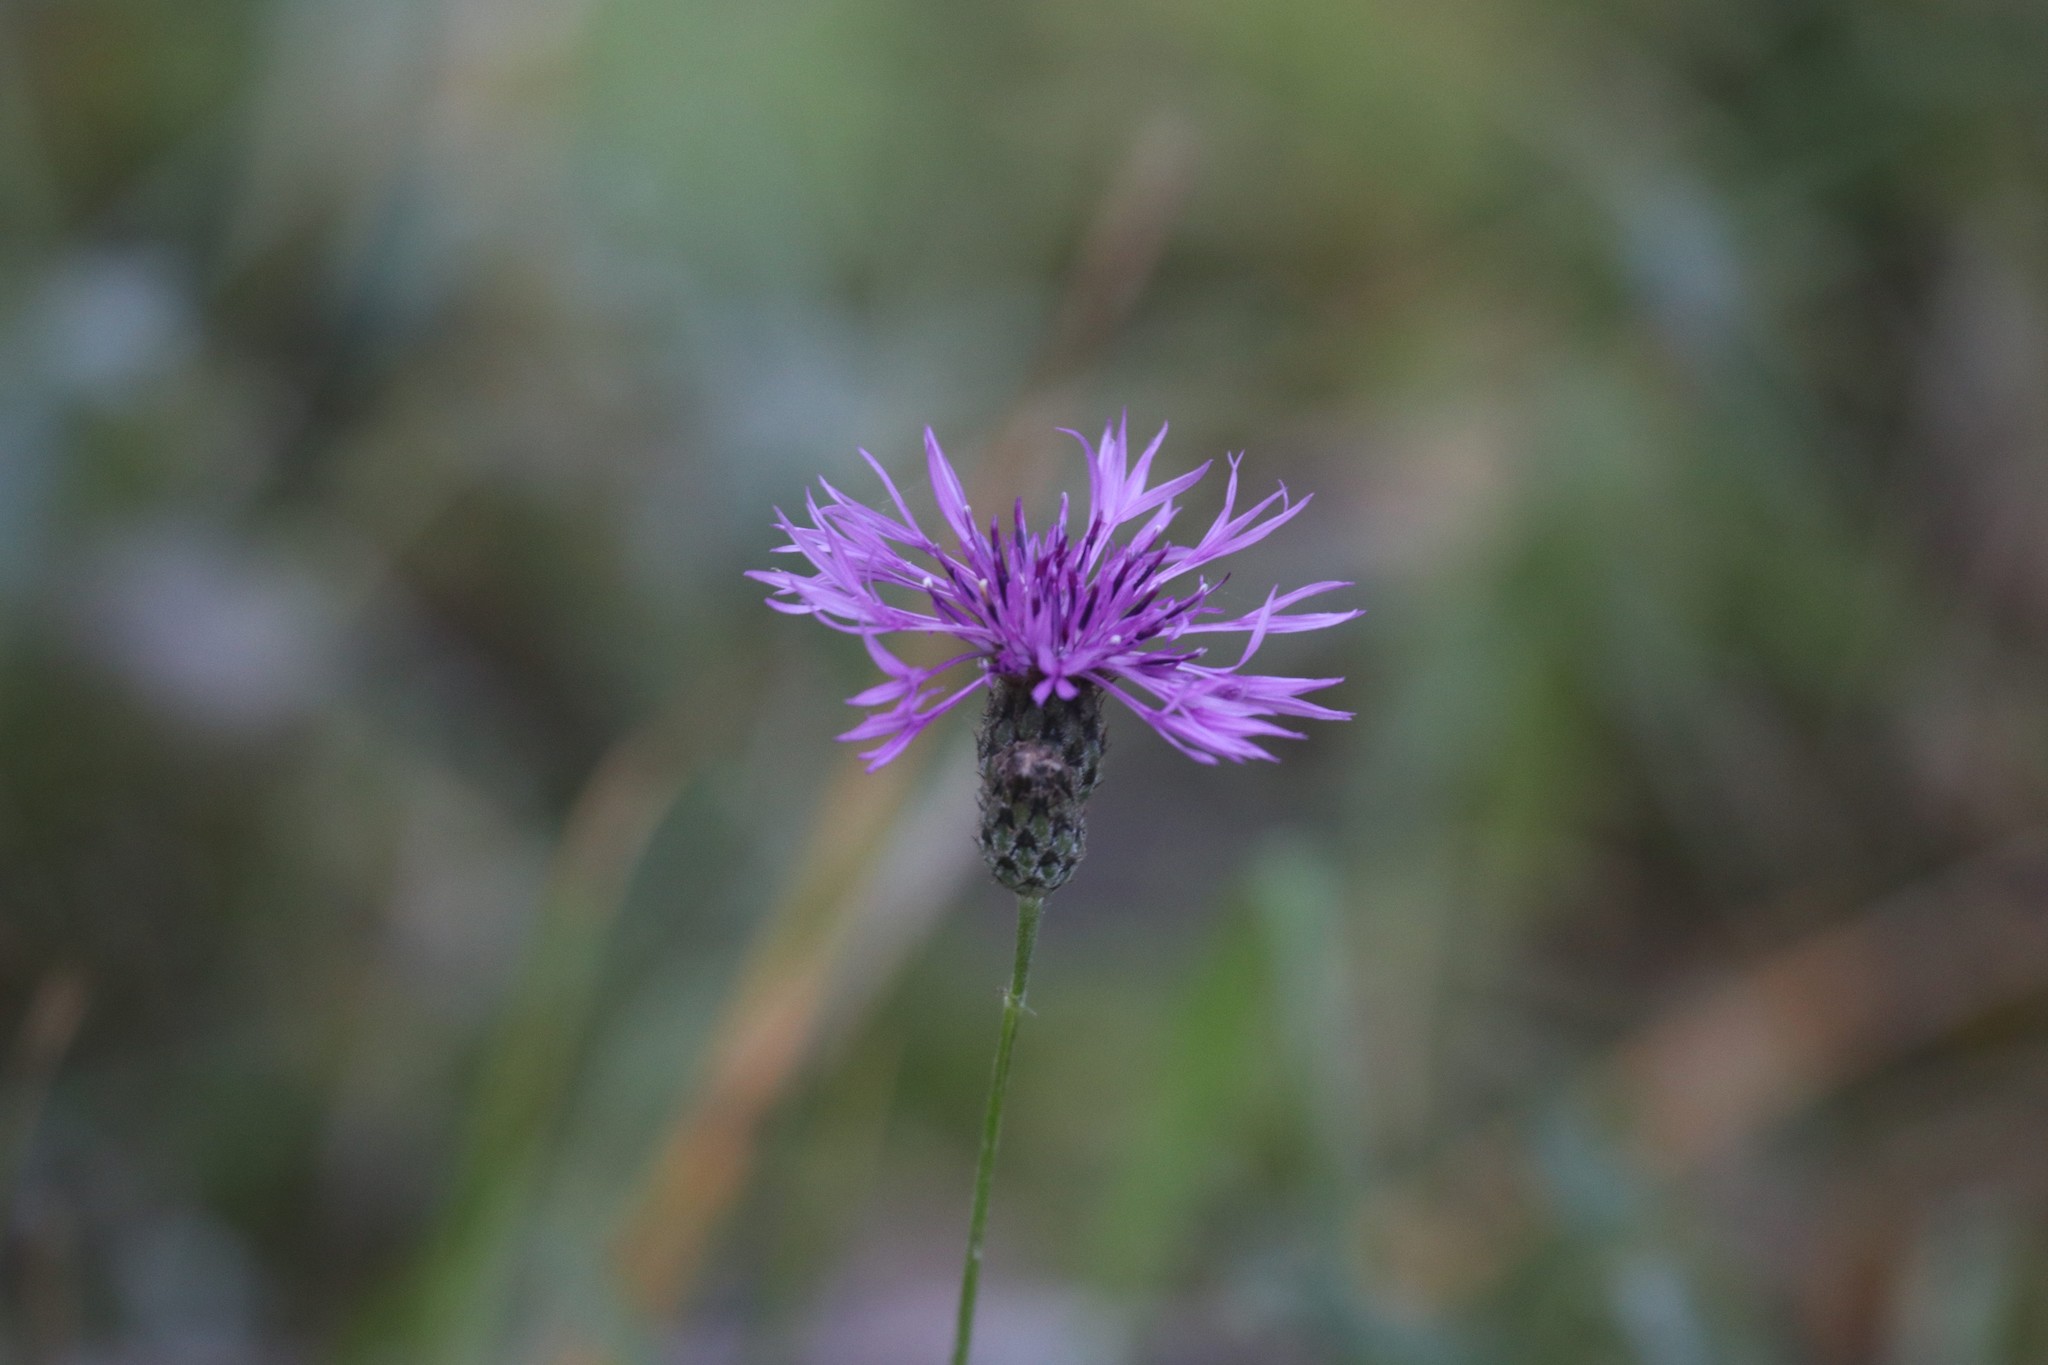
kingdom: Plantae
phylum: Tracheophyta
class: Magnoliopsida
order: Asterales
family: Asteraceae
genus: Centaurea
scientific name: Centaurea scabiosa
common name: Greater knapweed
